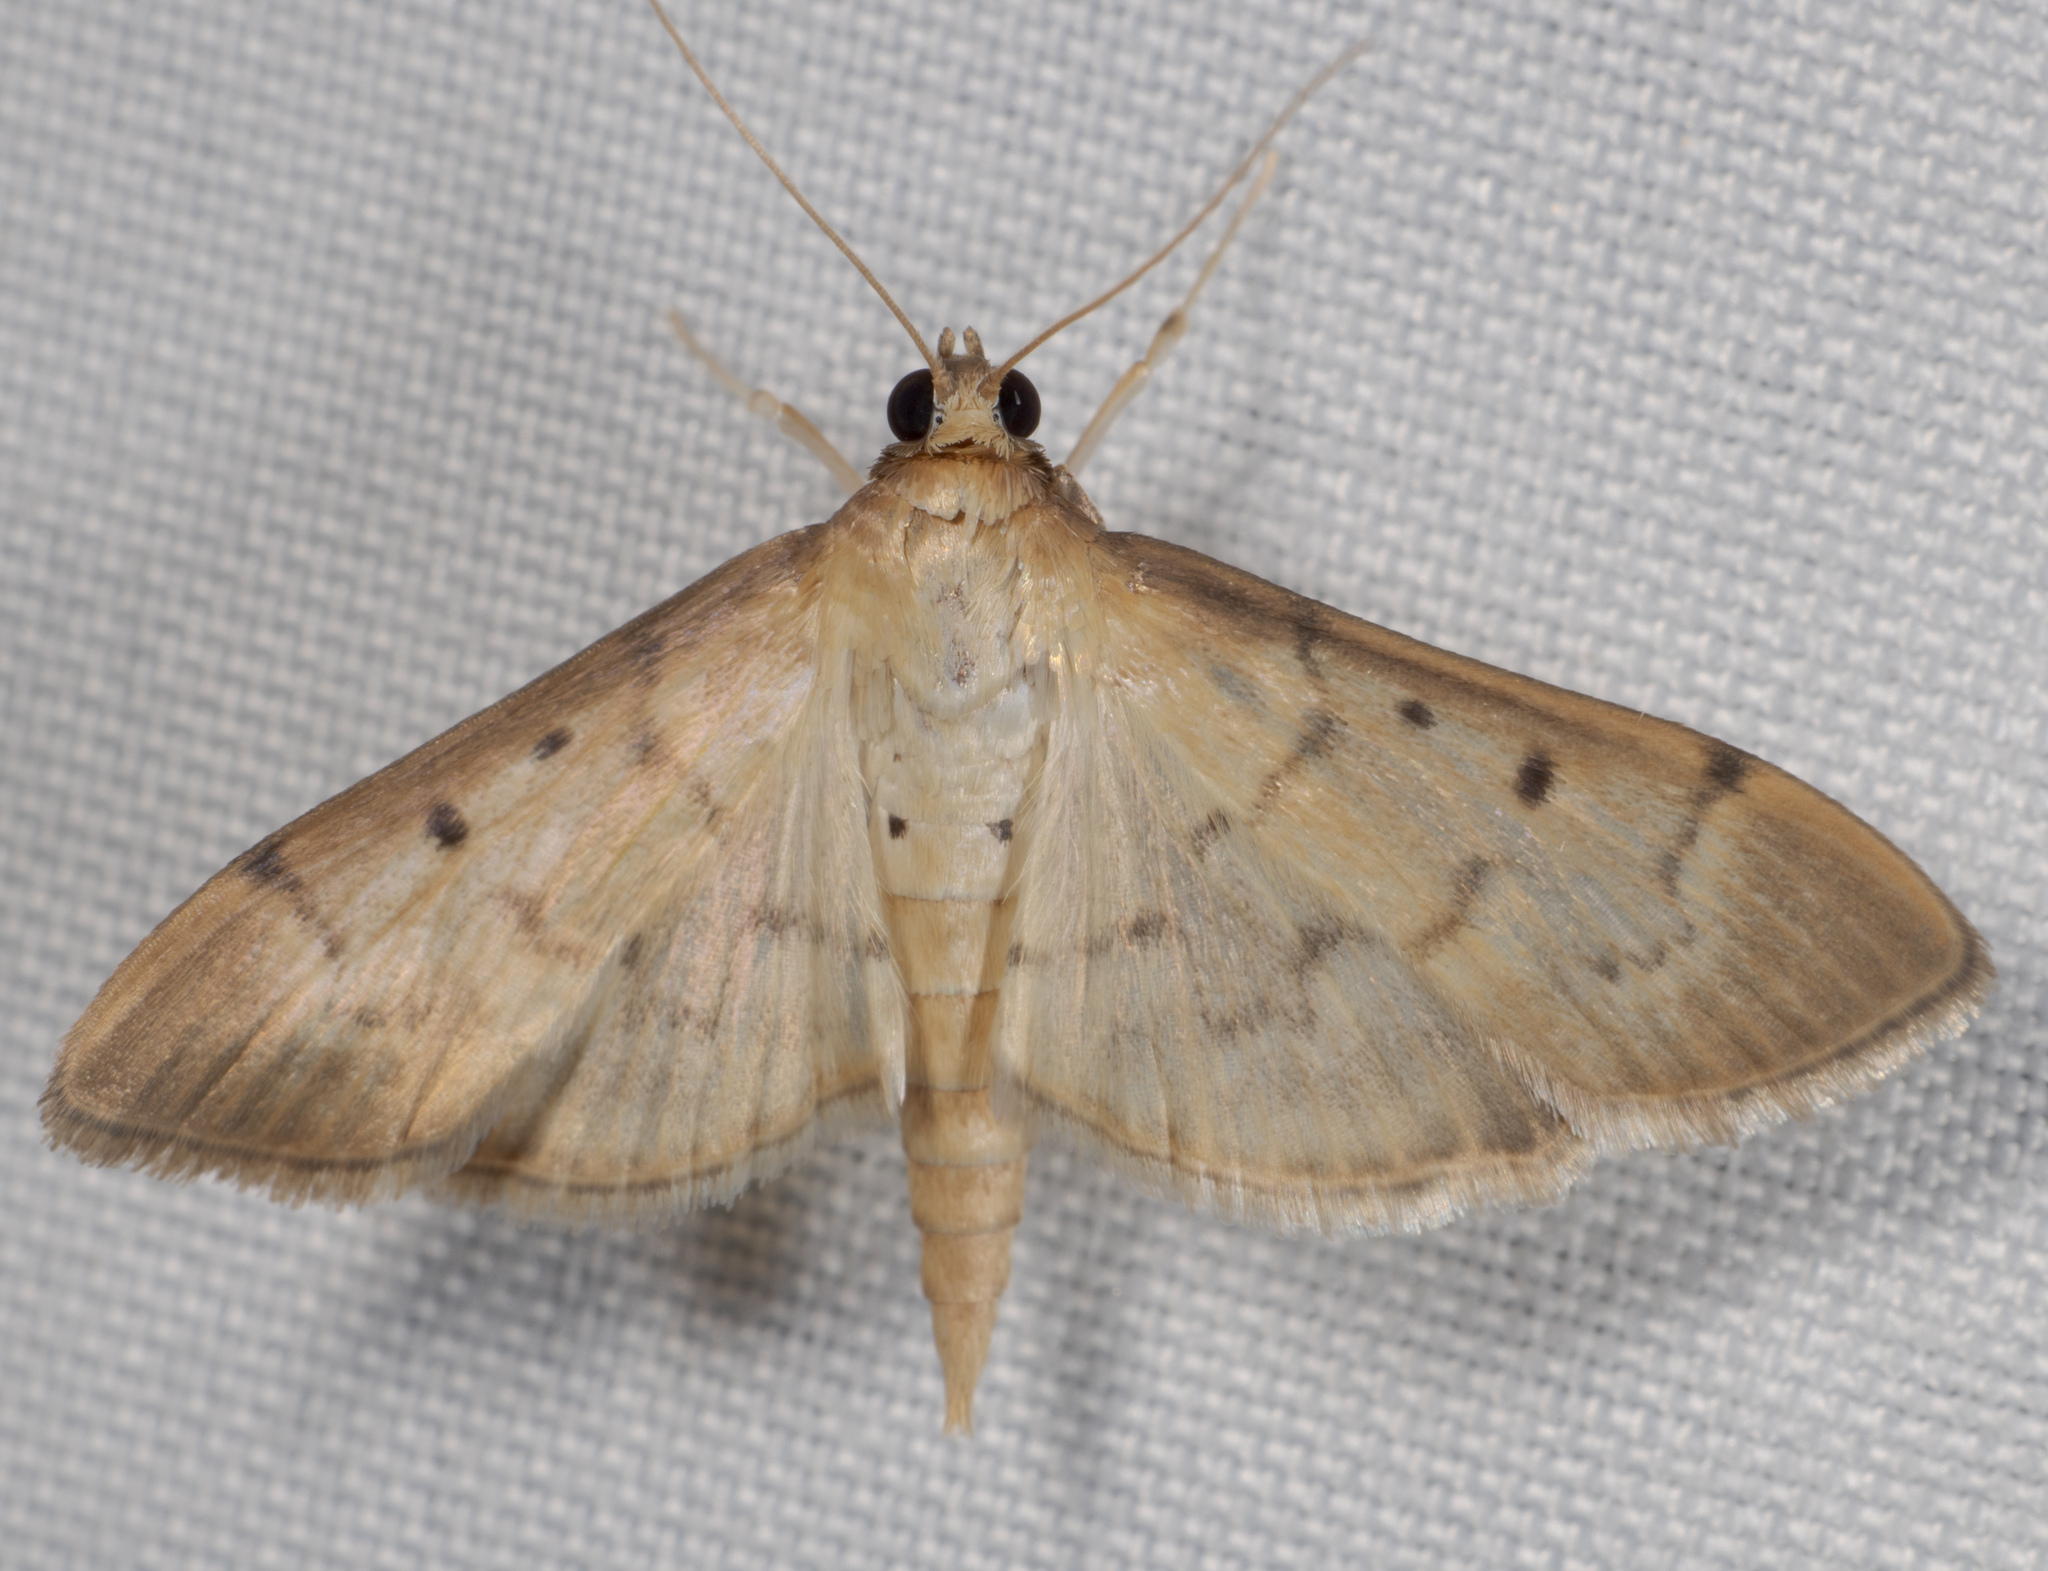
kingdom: Animalia
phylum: Arthropoda
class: Insecta
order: Lepidoptera
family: Crambidae
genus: Herpetogramma
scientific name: Herpetogramma bipunctalis
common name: Southern beet webworm
